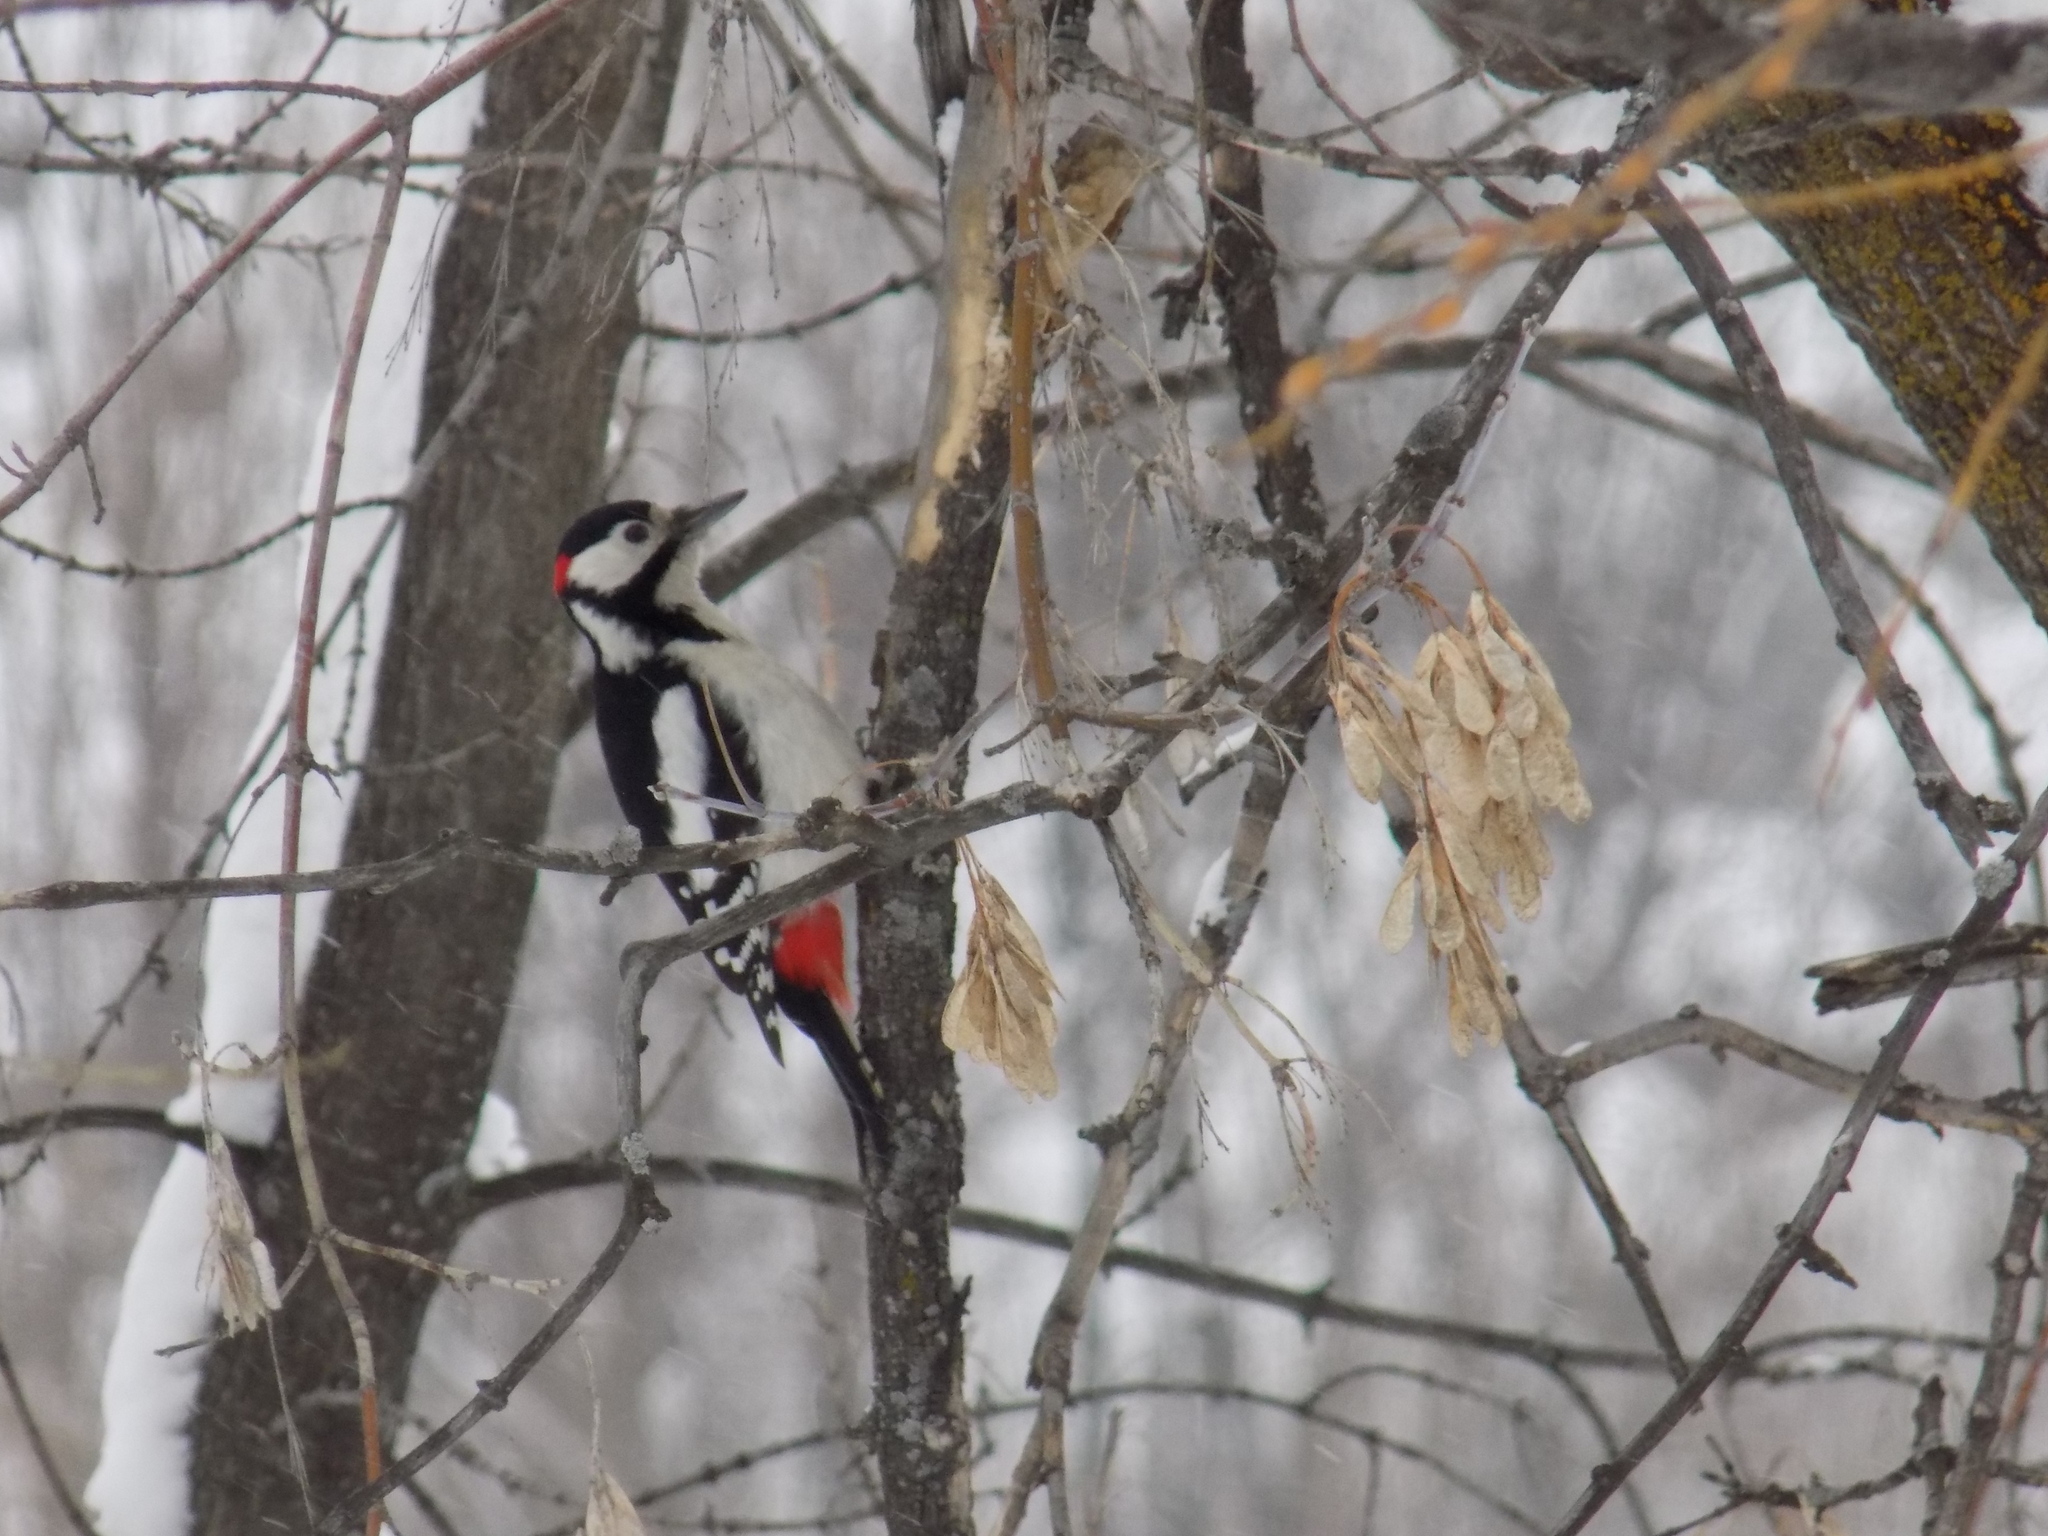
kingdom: Animalia
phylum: Chordata
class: Aves
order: Piciformes
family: Picidae
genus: Dendrocopos
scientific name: Dendrocopos major
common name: Great spotted woodpecker
